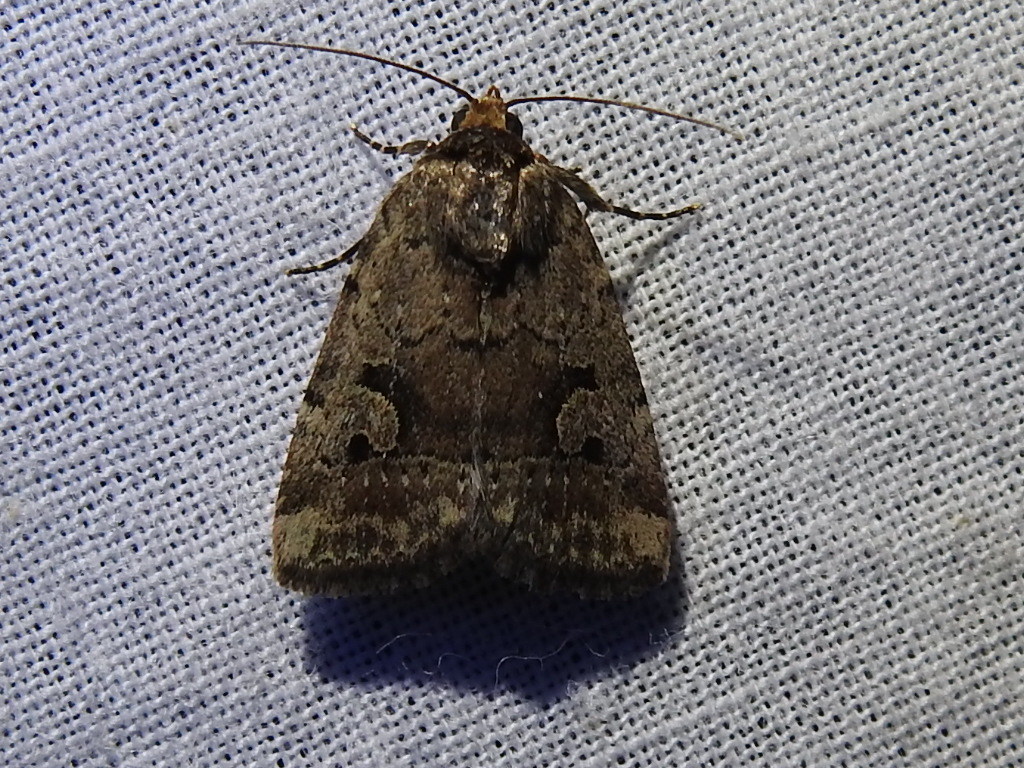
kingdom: Animalia
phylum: Arthropoda
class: Insecta
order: Lepidoptera
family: Noctuidae
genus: Elaphria
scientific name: Elaphria festivoides
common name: Festive midget
